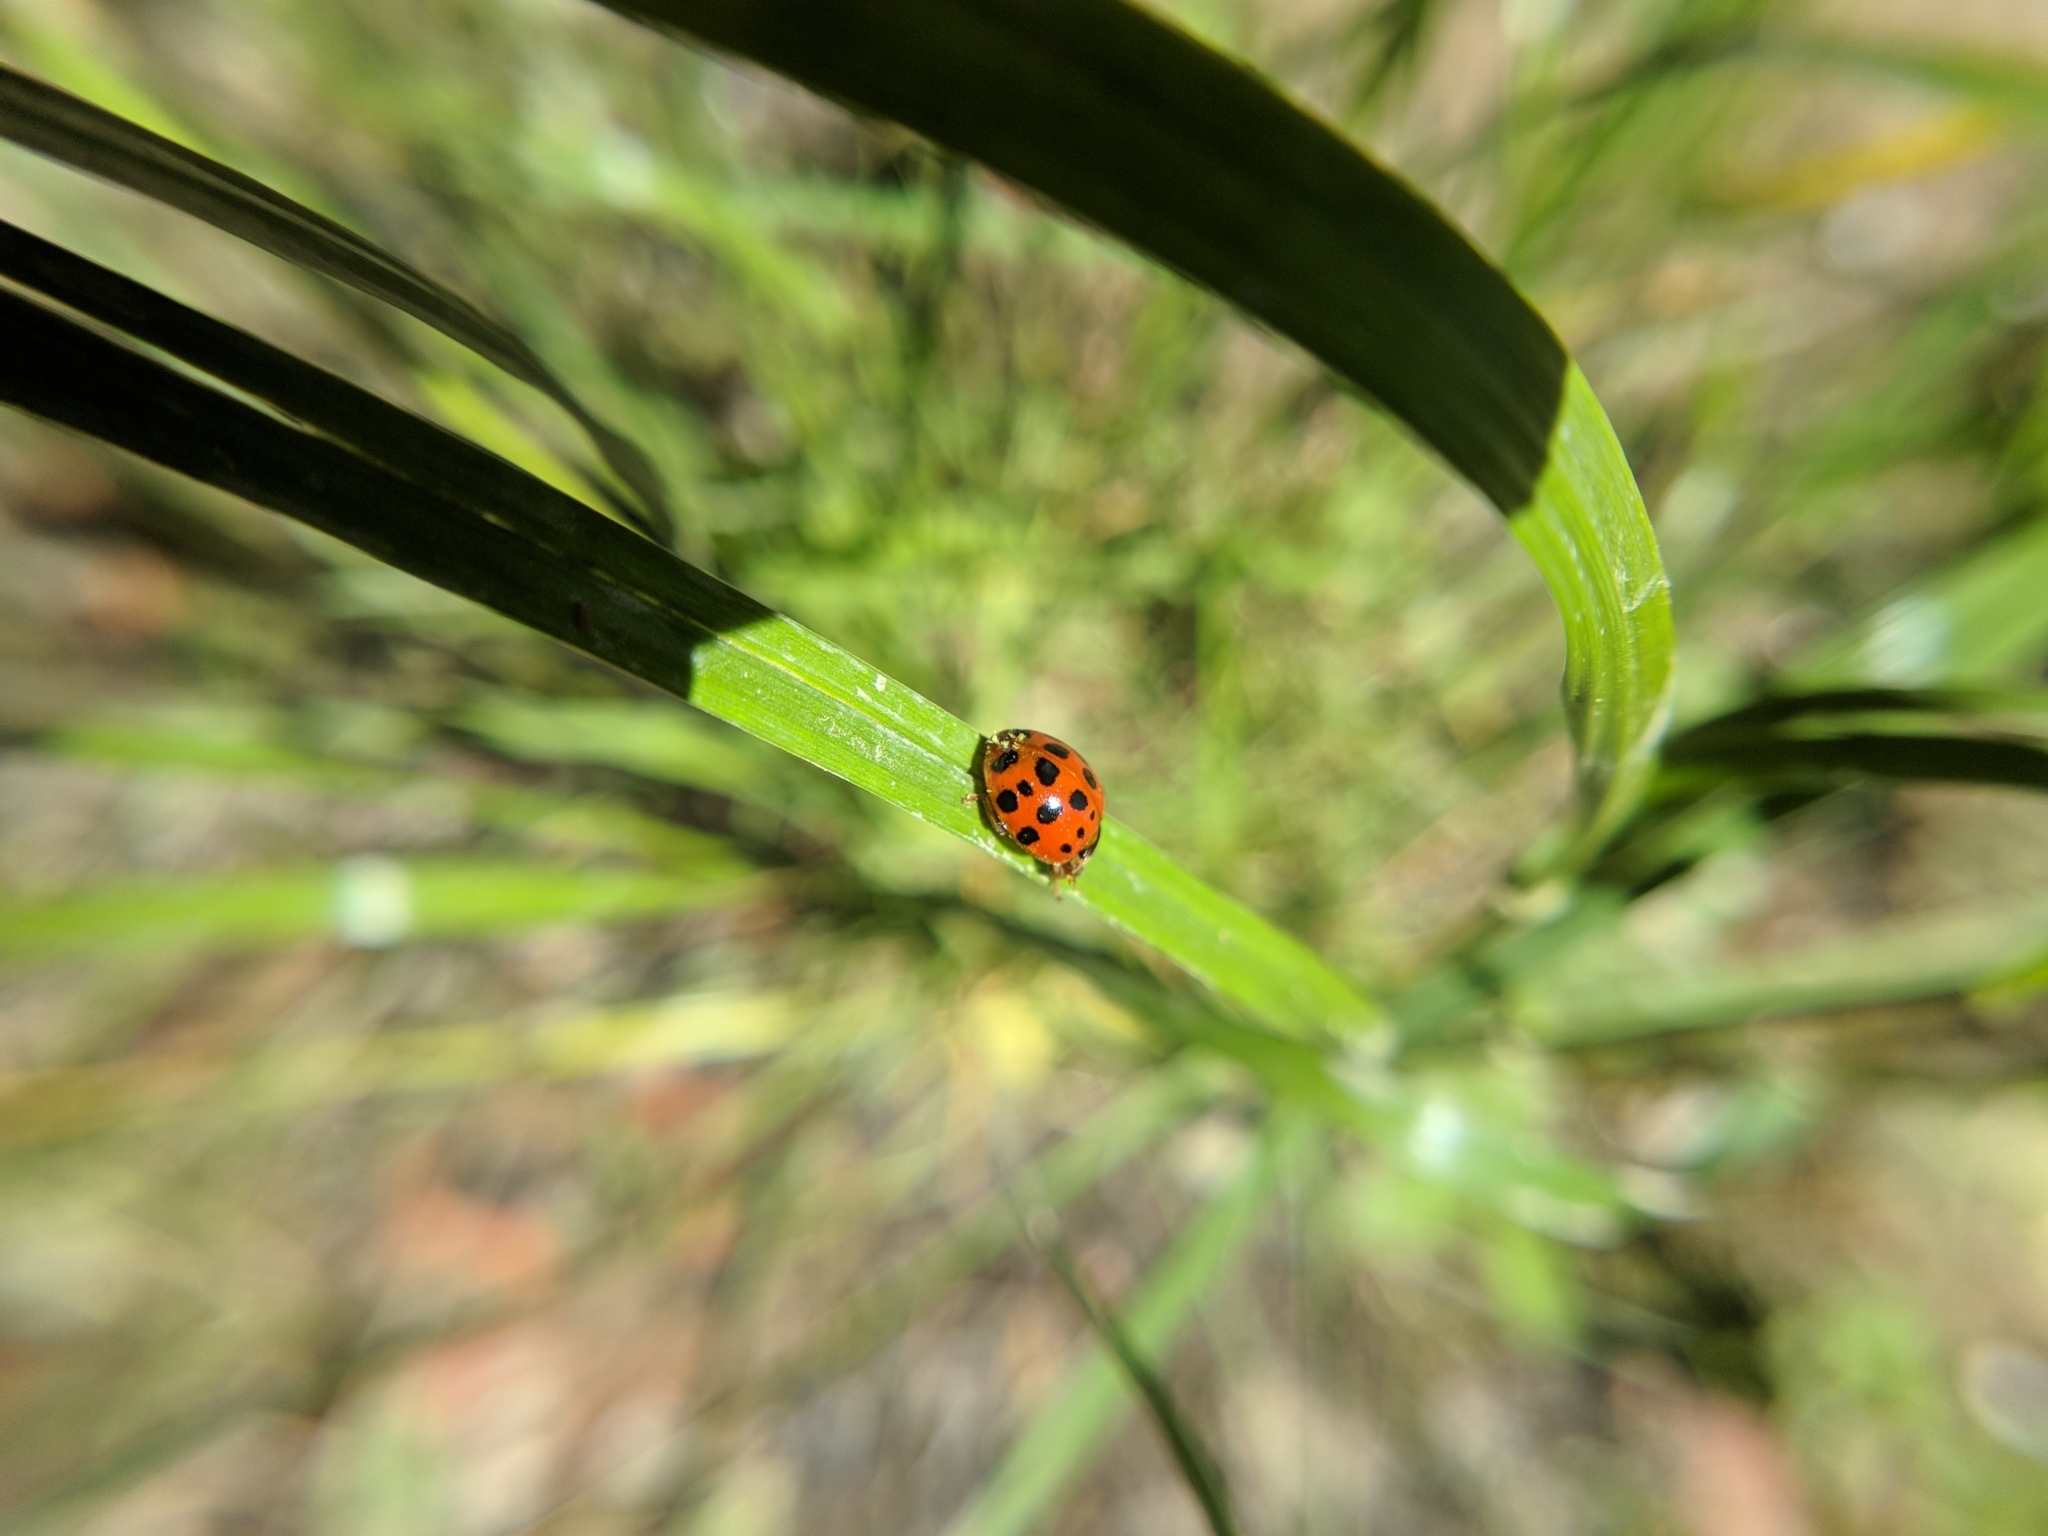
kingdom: Animalia
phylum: Arthropoda
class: Insecta
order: Coleoptera
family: Coccinellidae
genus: Harmonia
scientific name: Harmonia axyridis
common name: Harlequin ladybird
